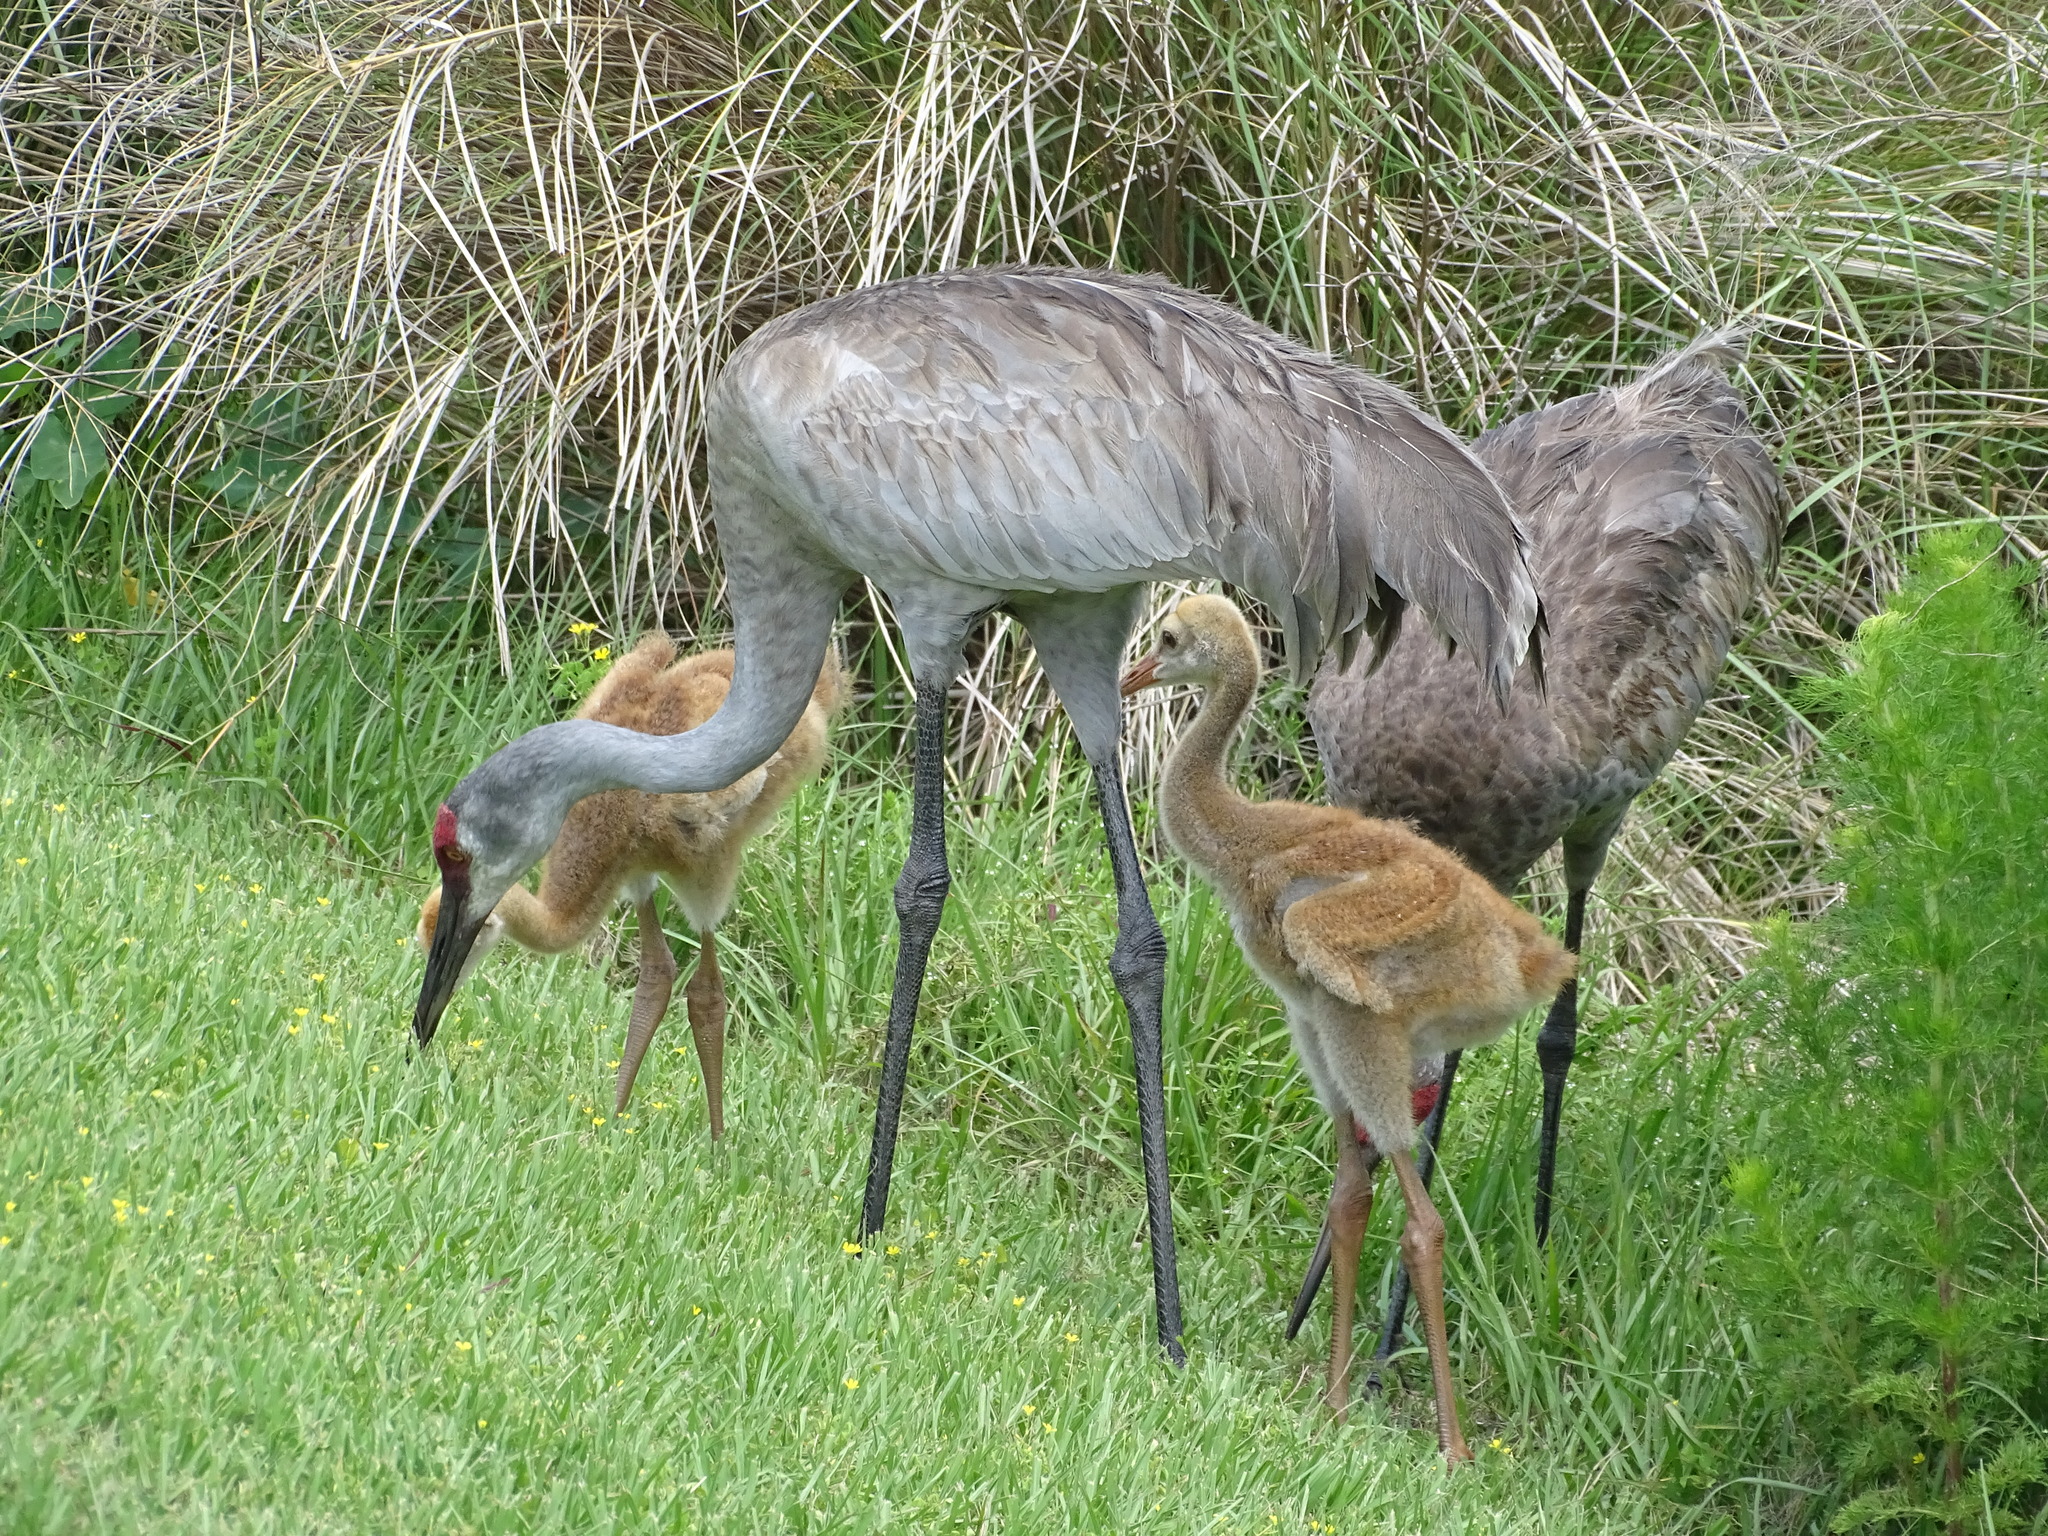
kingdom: Animalia
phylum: Chordata
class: Aves
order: Gruiformes
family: Gruidae
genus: Grus
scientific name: Grus canadensis
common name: Sandhill crane
